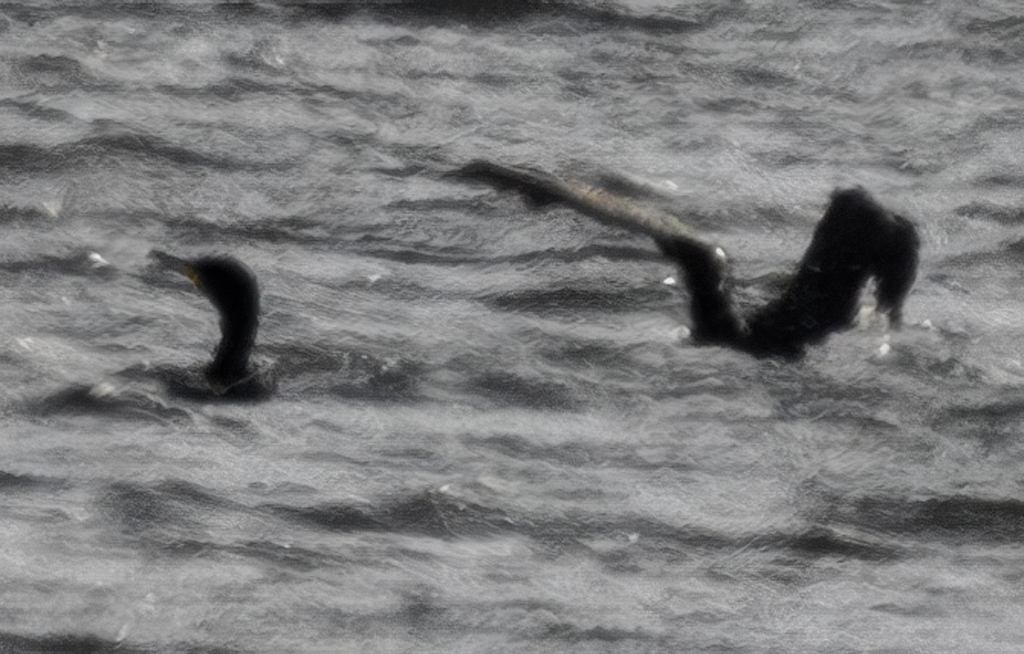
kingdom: Animalia
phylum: Chordata
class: Aves
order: Suliformes
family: Phalacrocoracidae
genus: Phalacrocorax
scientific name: Phalacrocorax carbo
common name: Great cormorant
